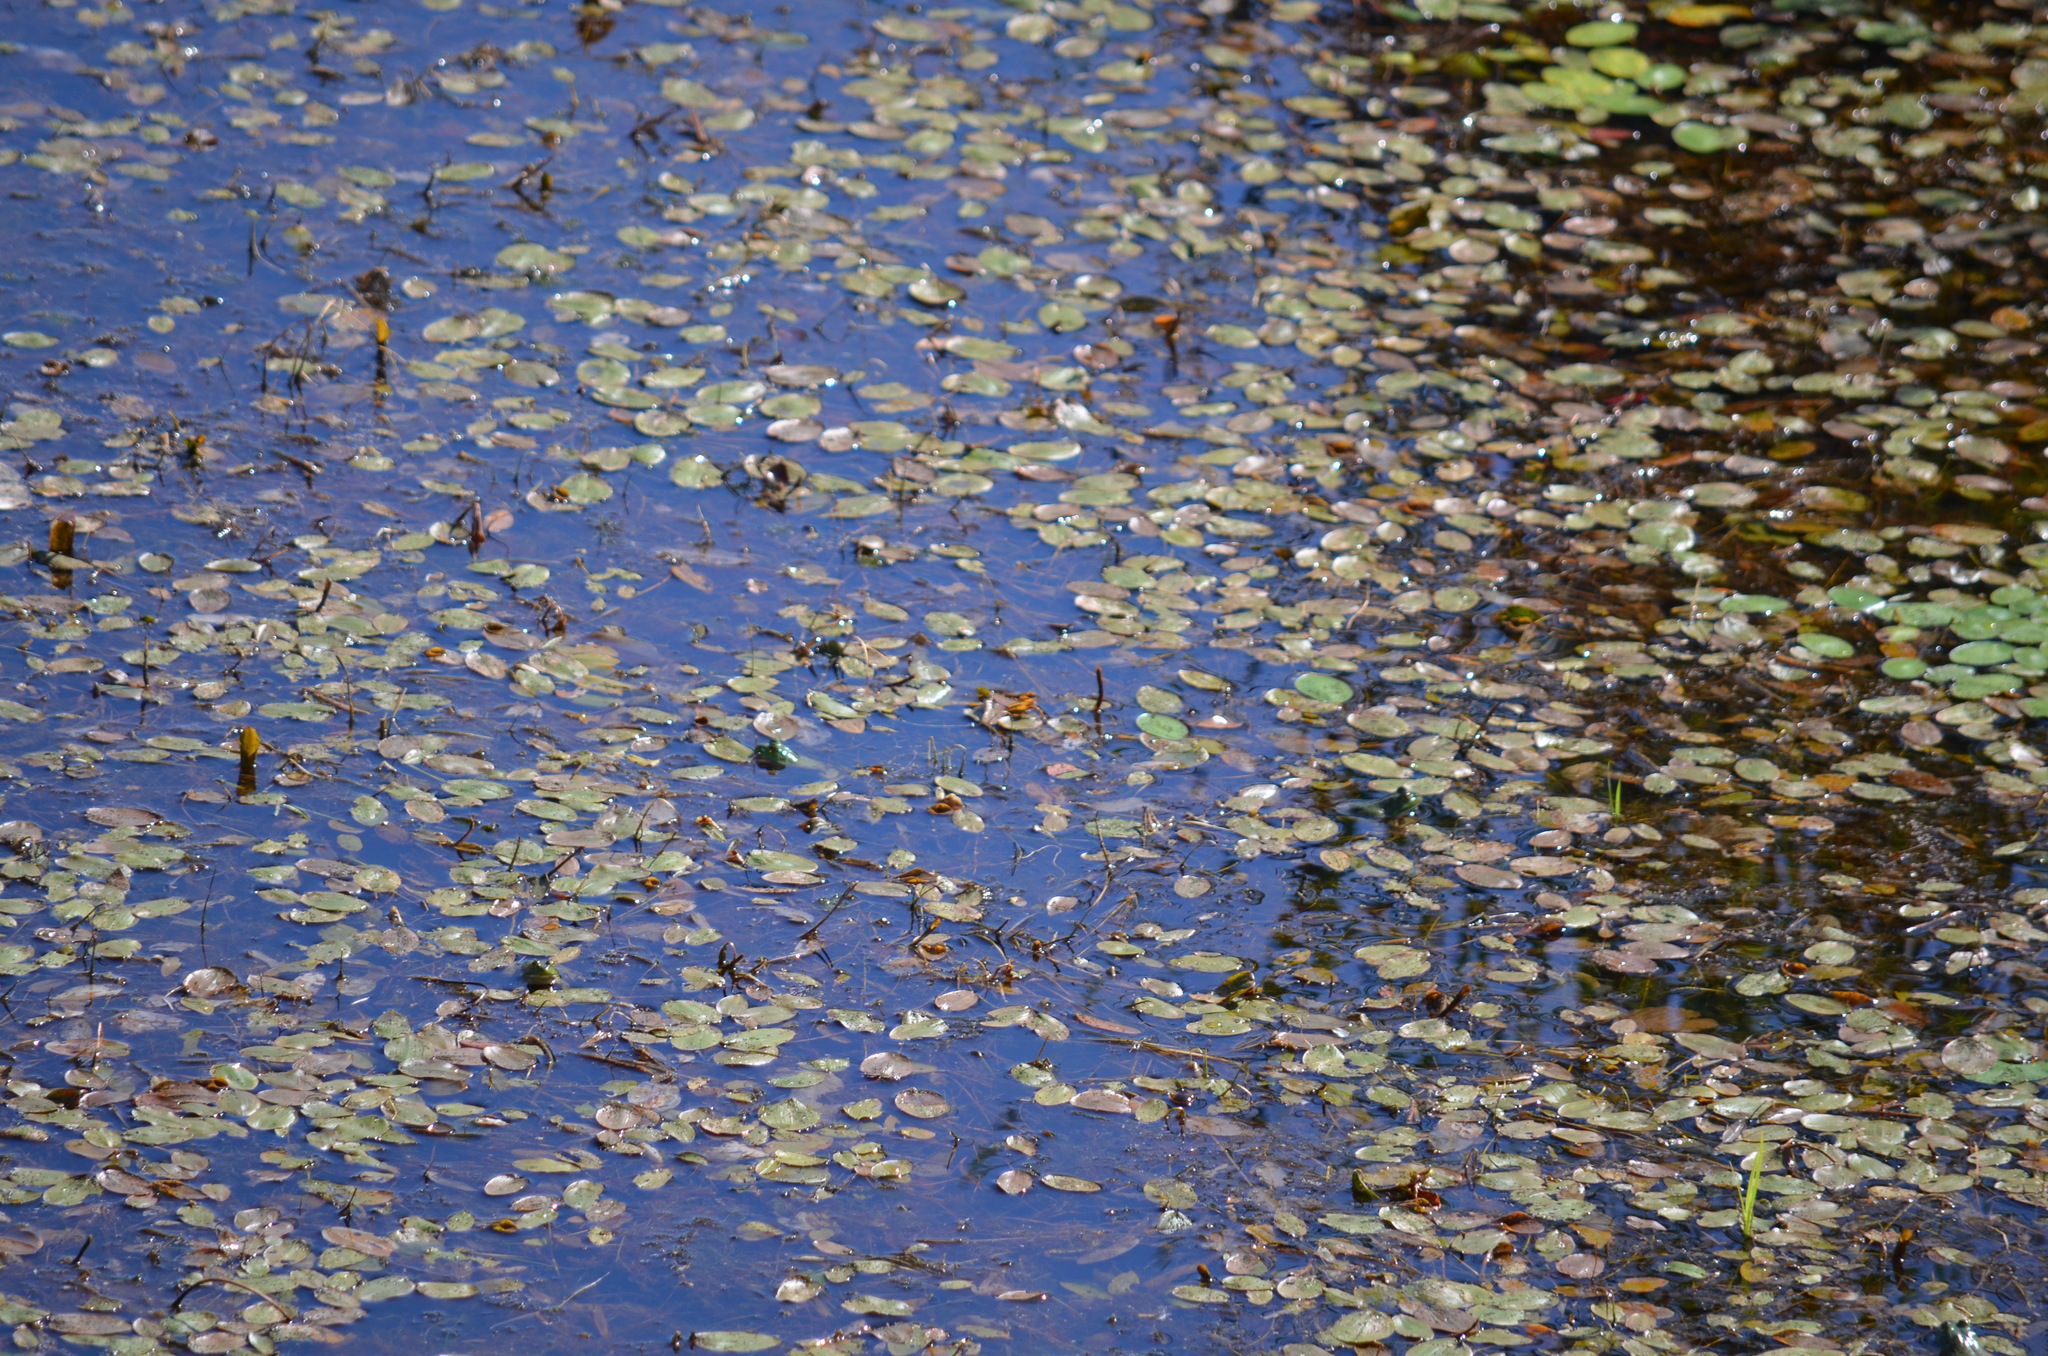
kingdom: Animalia
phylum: Chordata
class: Amphibia
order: Anura
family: Ranidae
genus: Lithobates
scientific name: Lithobates catesbeianus
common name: American bullfrog
